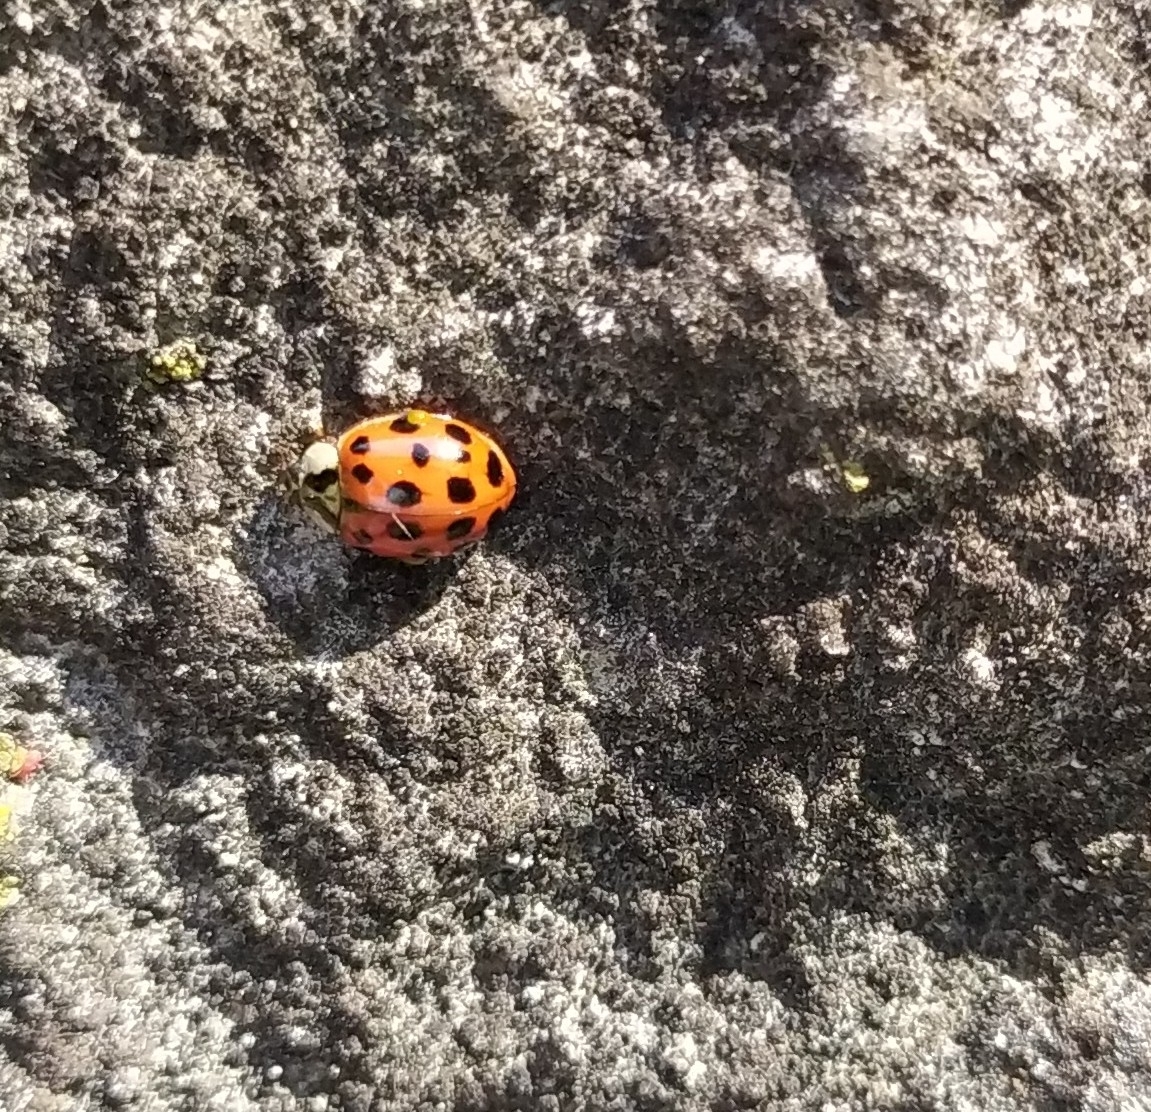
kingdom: Animalia
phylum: Arthropoda
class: Insecta
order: Coleoptera
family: Coccinellidae
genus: Harmonia
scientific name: Harmonia axyridis
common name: Harlequin ladybird
